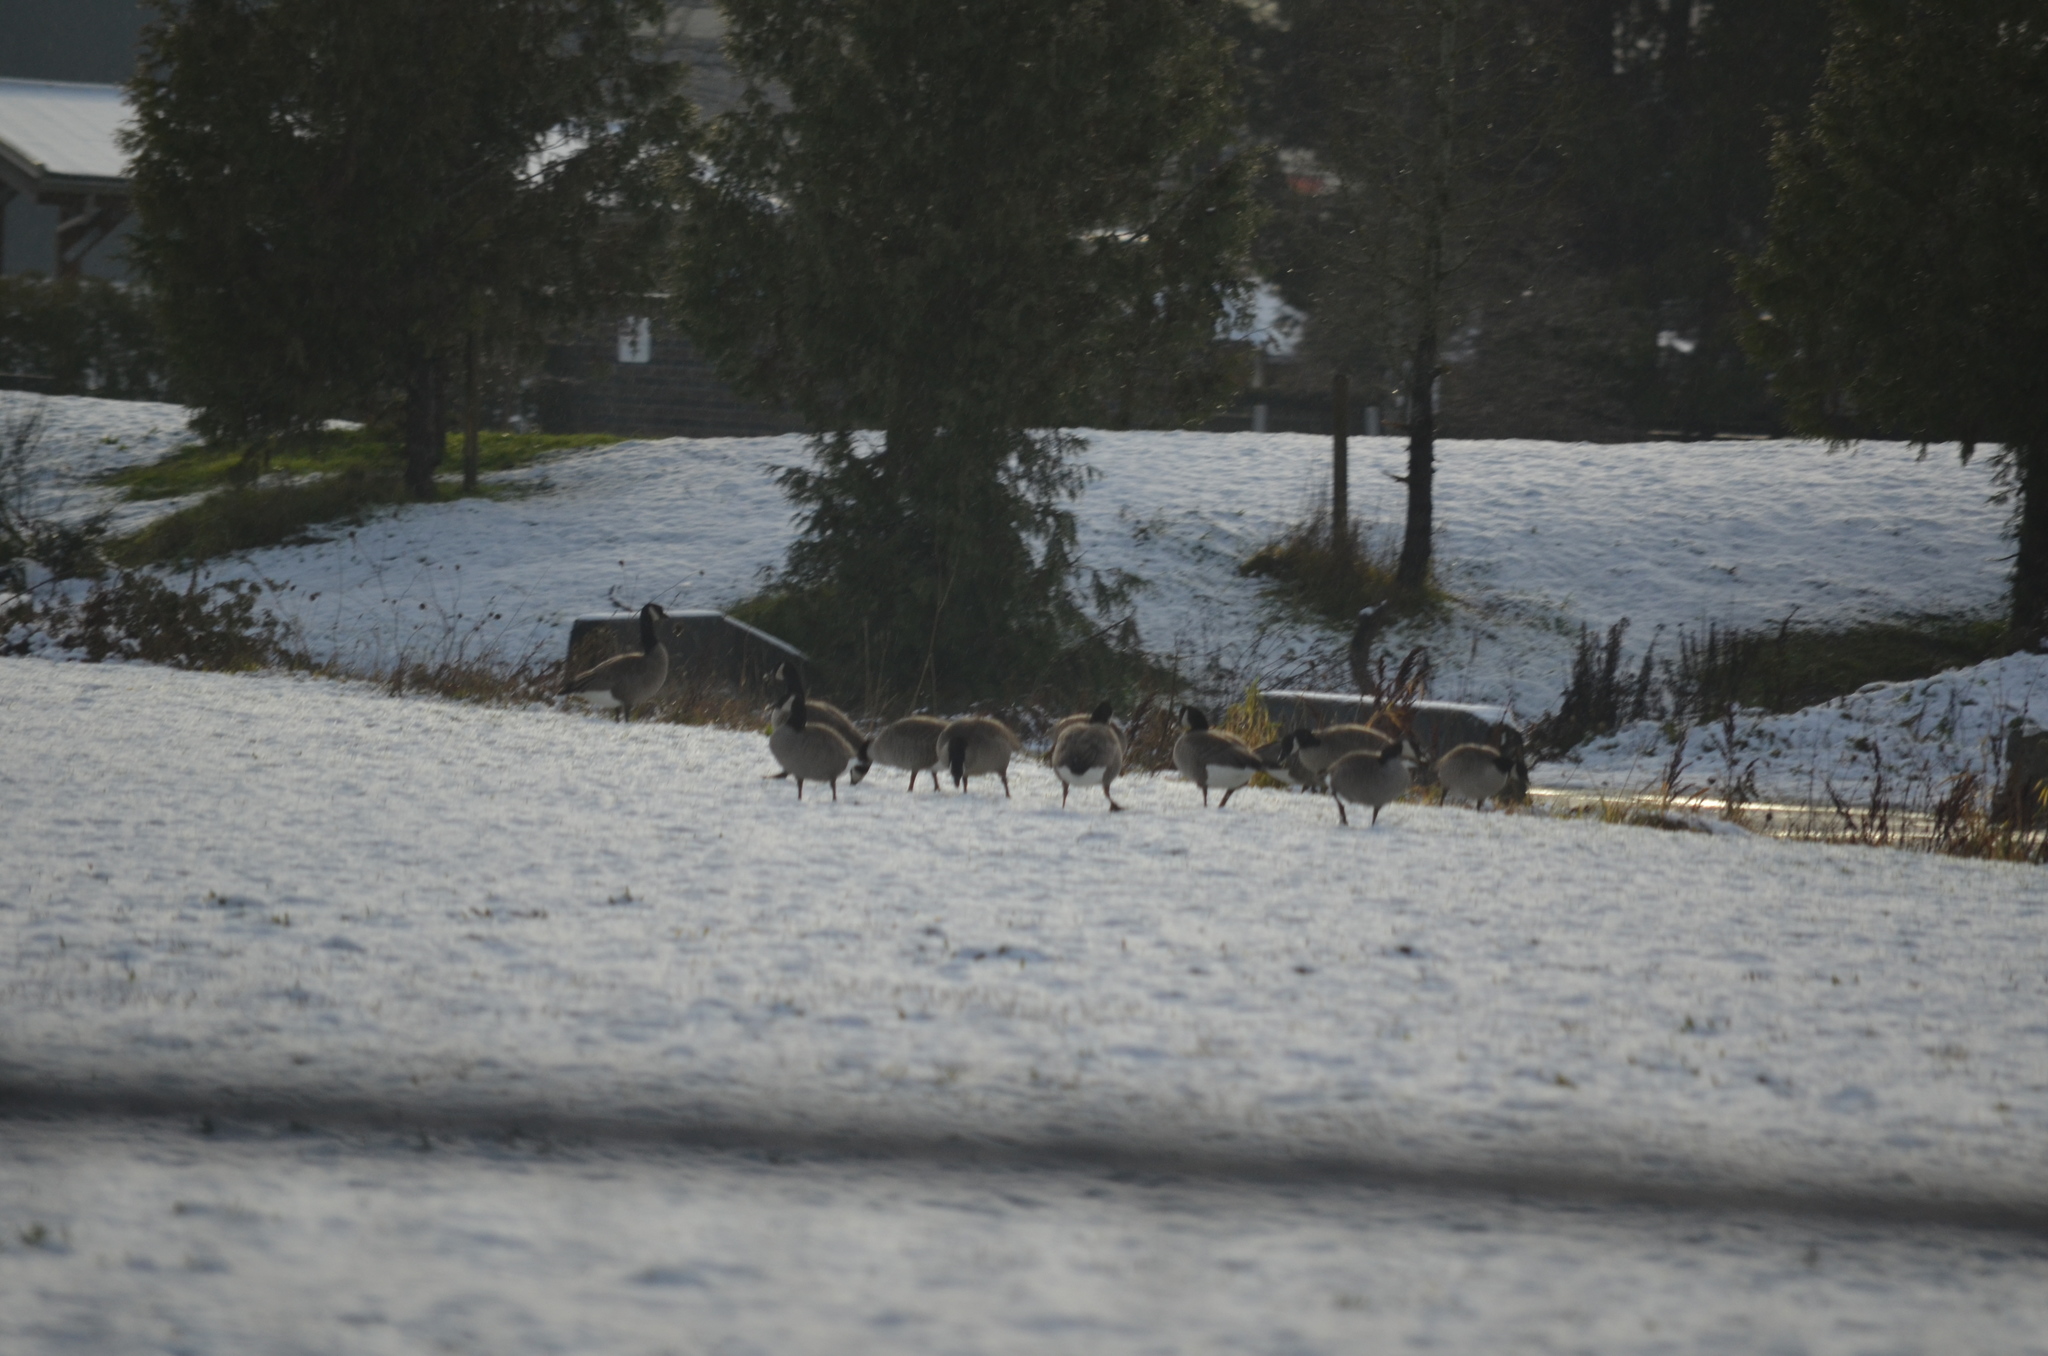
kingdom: Animalia
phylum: Chordata
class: Aves
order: Anseriformes
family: Anatidae
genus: Branta
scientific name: Branta hutchinsii
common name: Cackling goose
